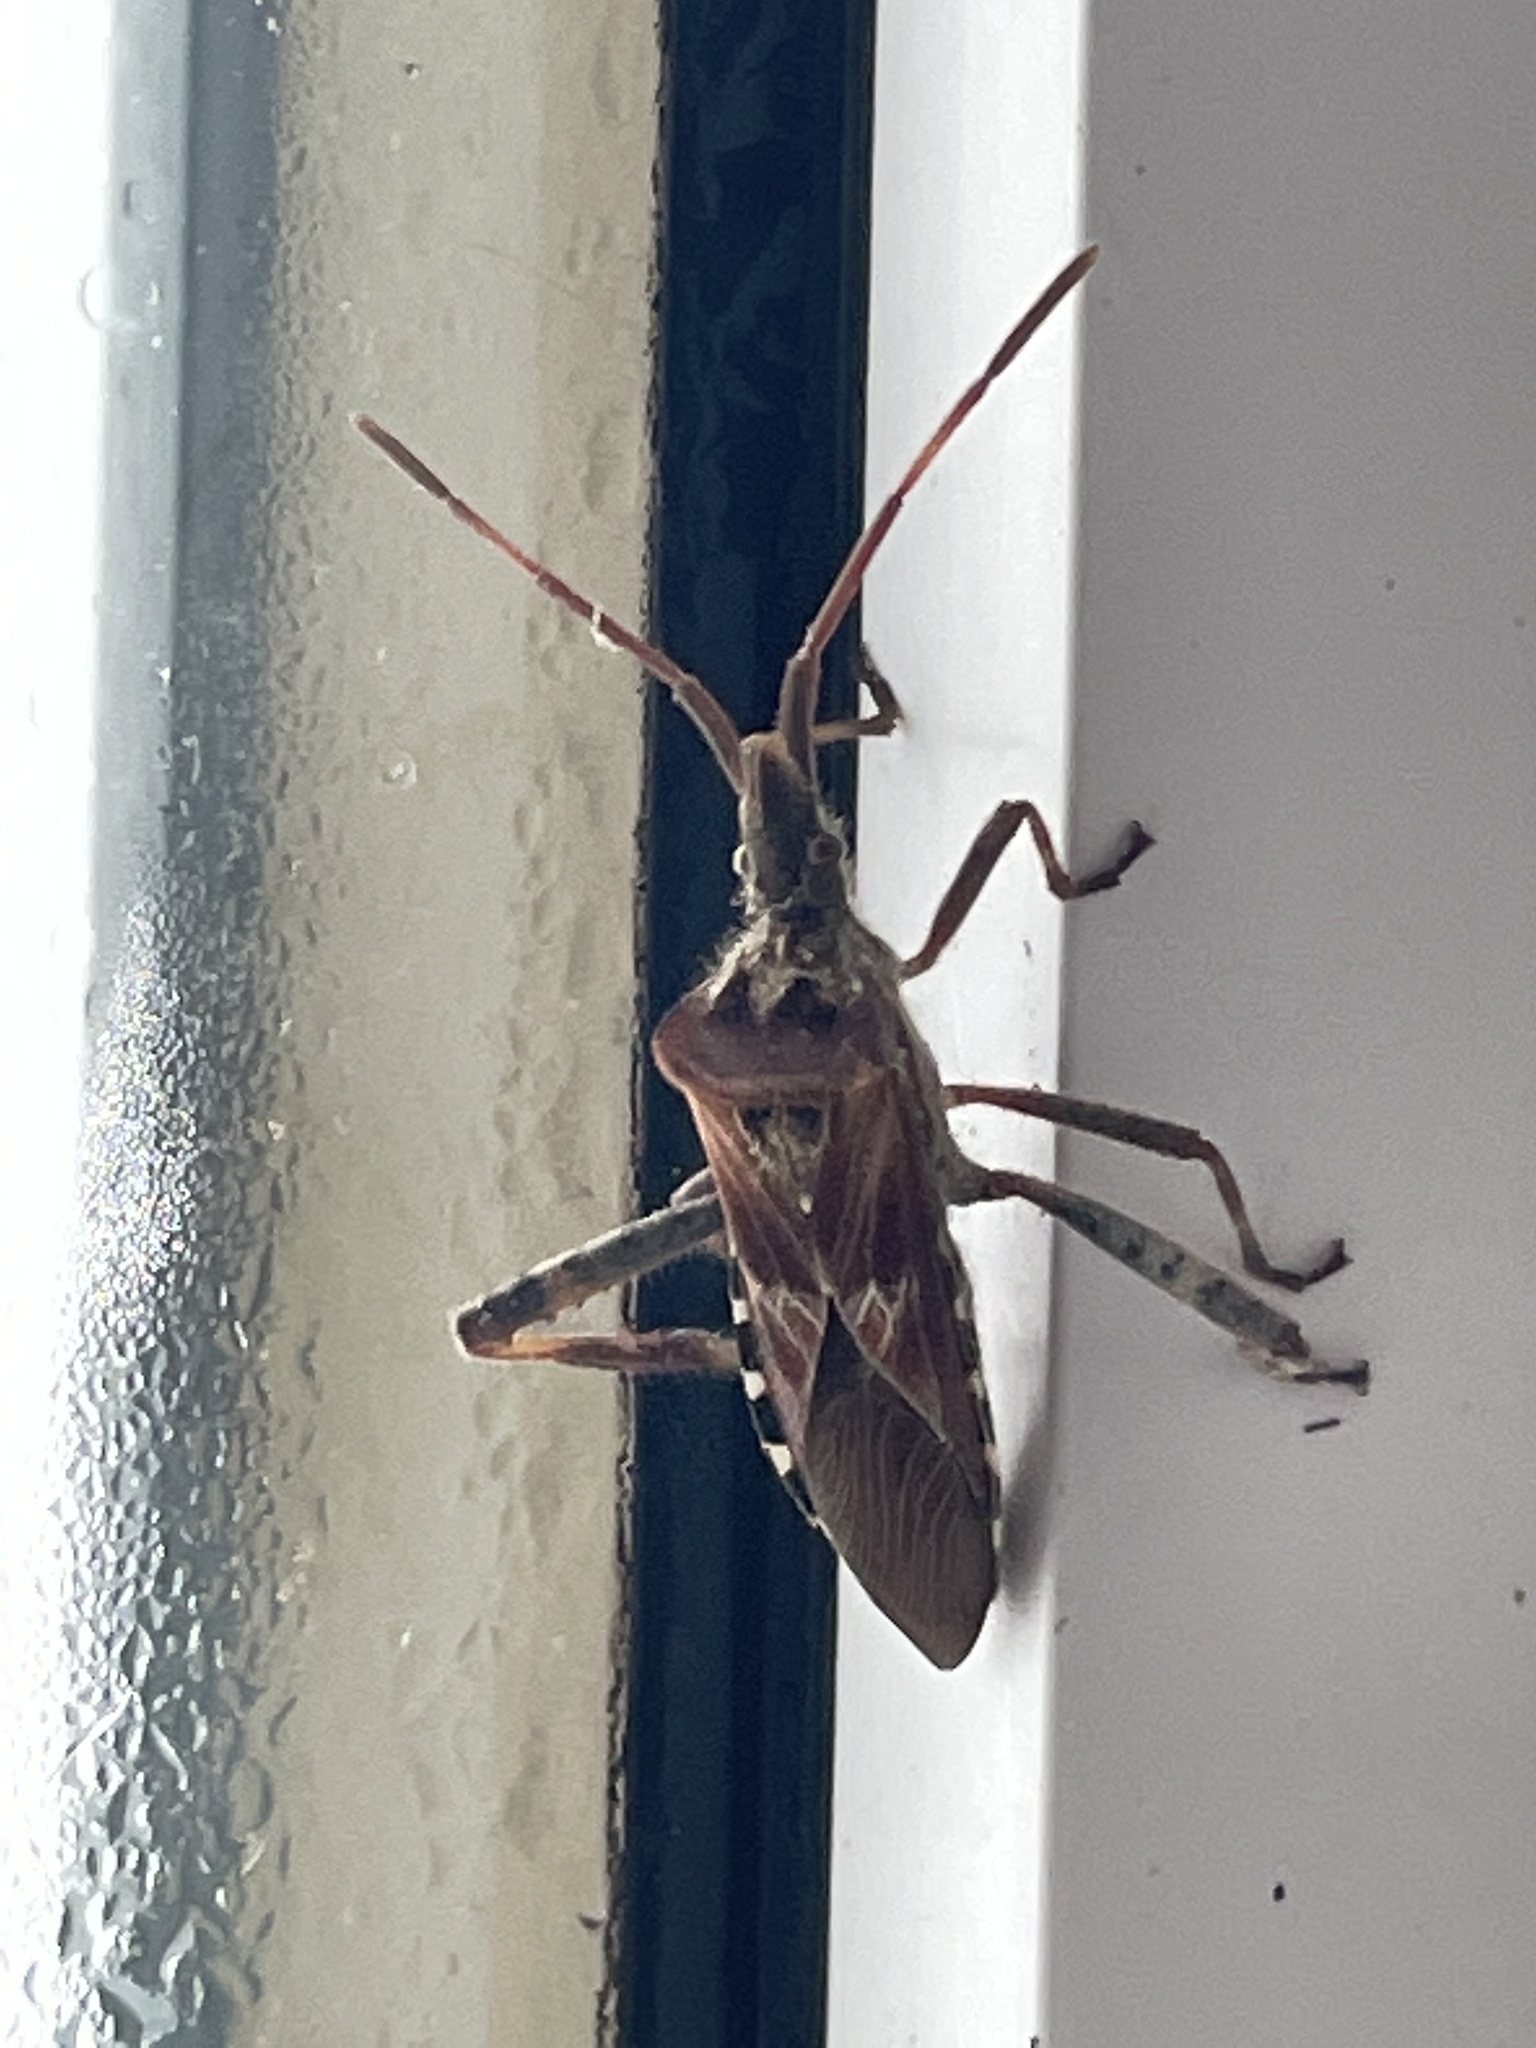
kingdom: Animalia
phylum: Arthropoda
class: Insecta
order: Hemiptera
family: Coreidae
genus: Leptoglossus
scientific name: Leptoglossus occidentalis
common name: Western conifer-seed bug
